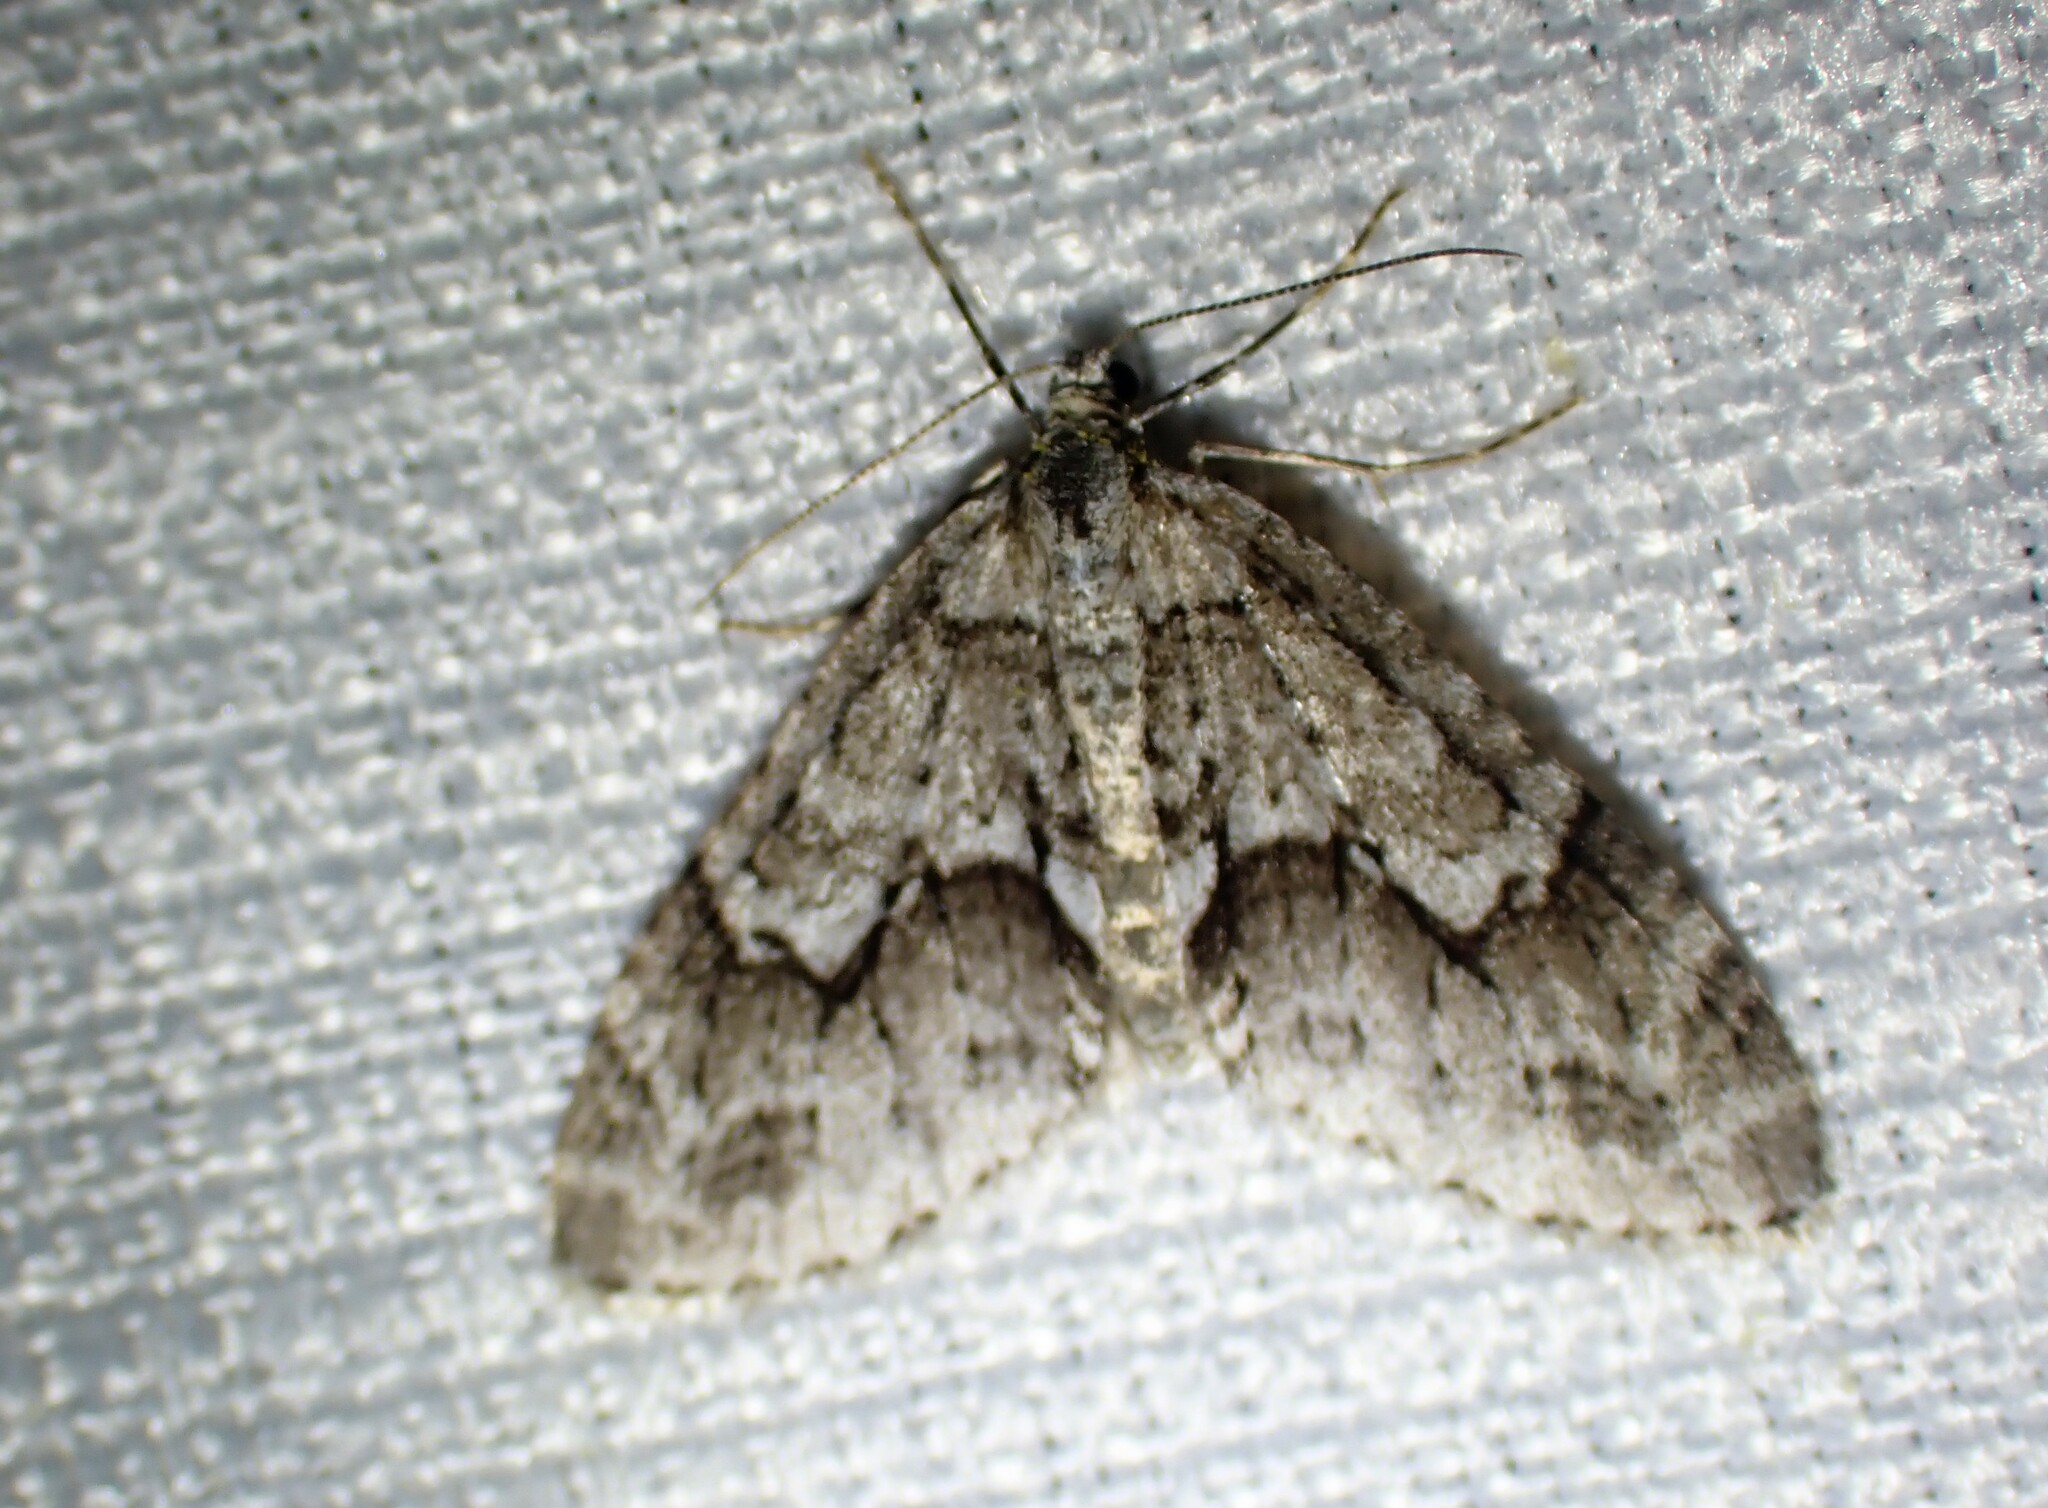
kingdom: Animalia
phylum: Arthropoda
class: Insecta
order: Lepidoptera
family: Geometridae
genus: Cladara
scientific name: Cladara limitaria
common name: Mottled gray carpet
